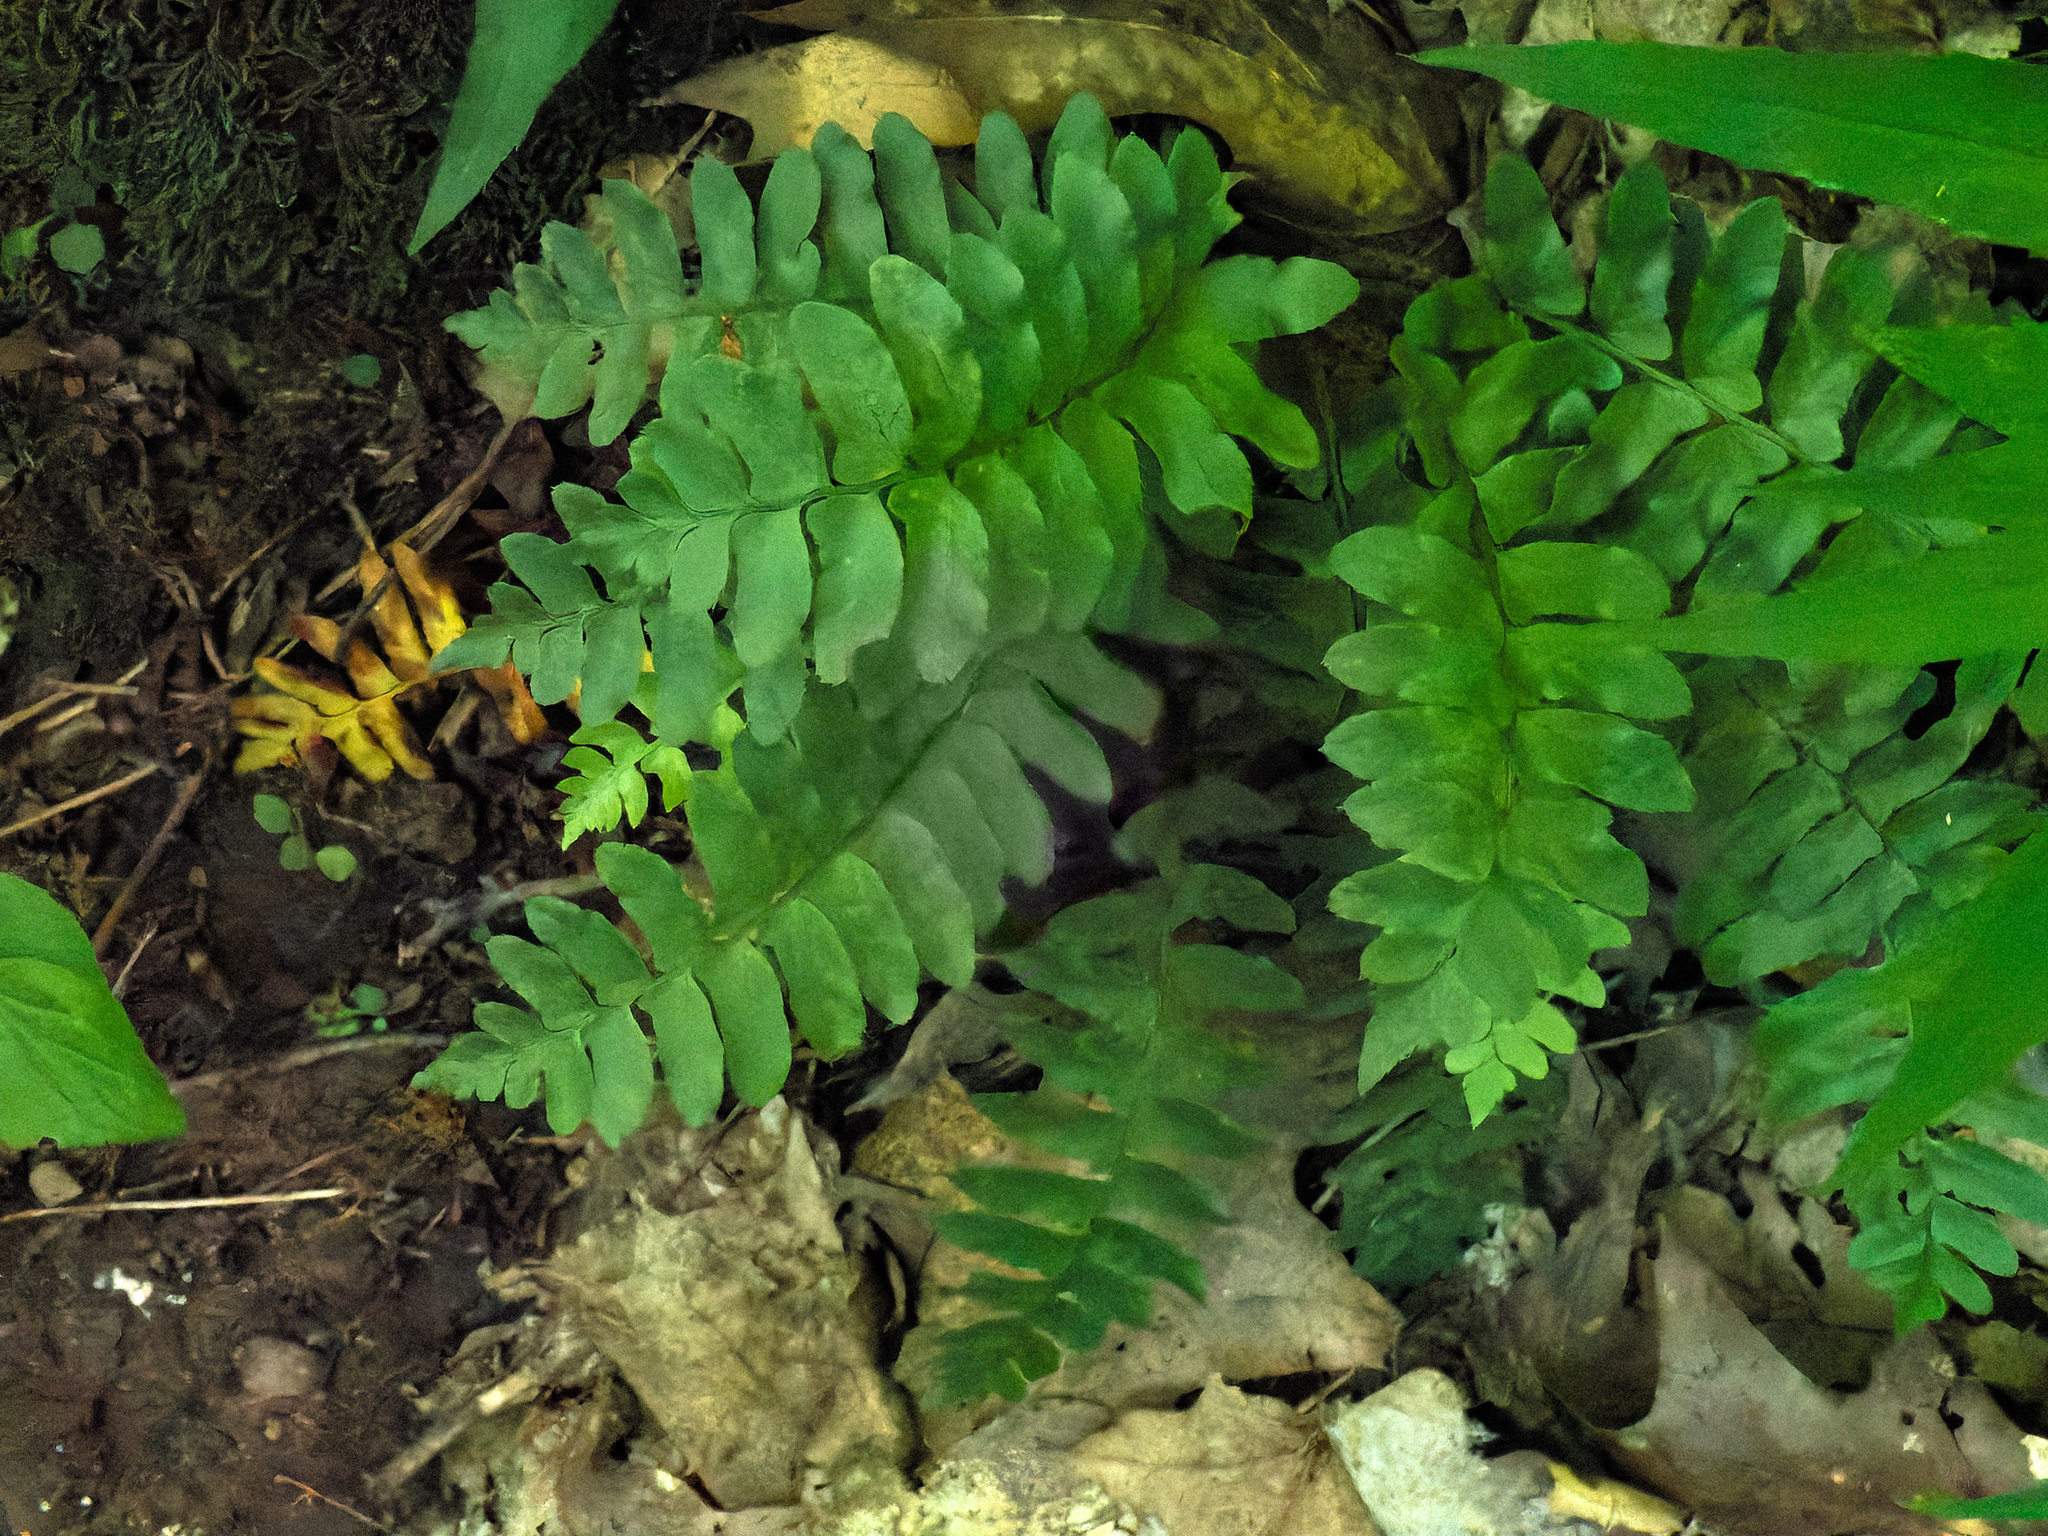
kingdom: Plantae
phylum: Tracheophyta
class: Polypodiopsida
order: Polypodiales
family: Dryopteridaceae
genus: Polystichum
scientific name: Polystichum acrostichoides
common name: Christmas fern
